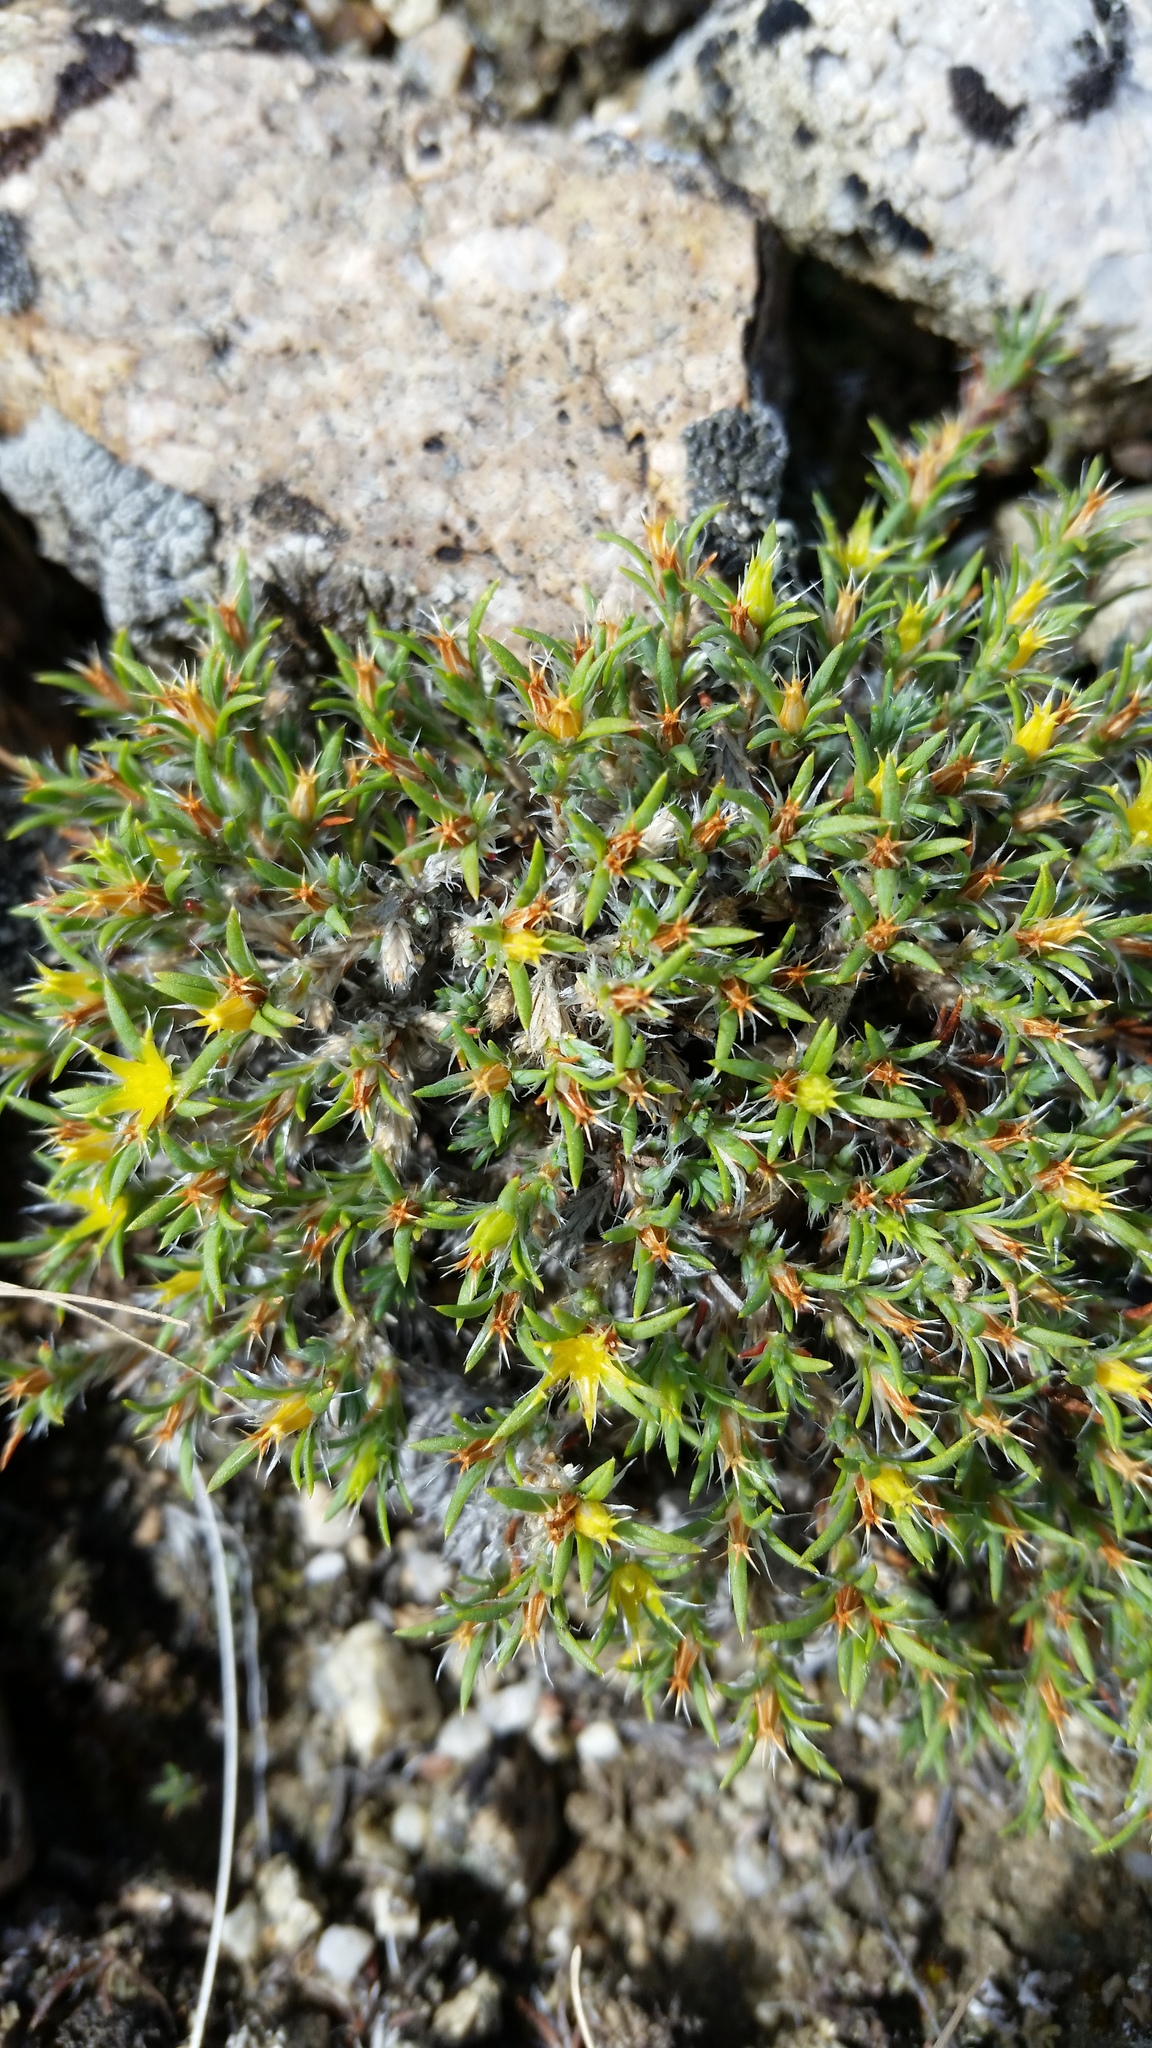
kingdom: Plantae
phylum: Tracheophyta
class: Magnoliopsida
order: Caryophyllales
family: Caryophyllaceae
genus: Paronychia
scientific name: Paronychia sessiliflora
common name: Creeping nailwort
